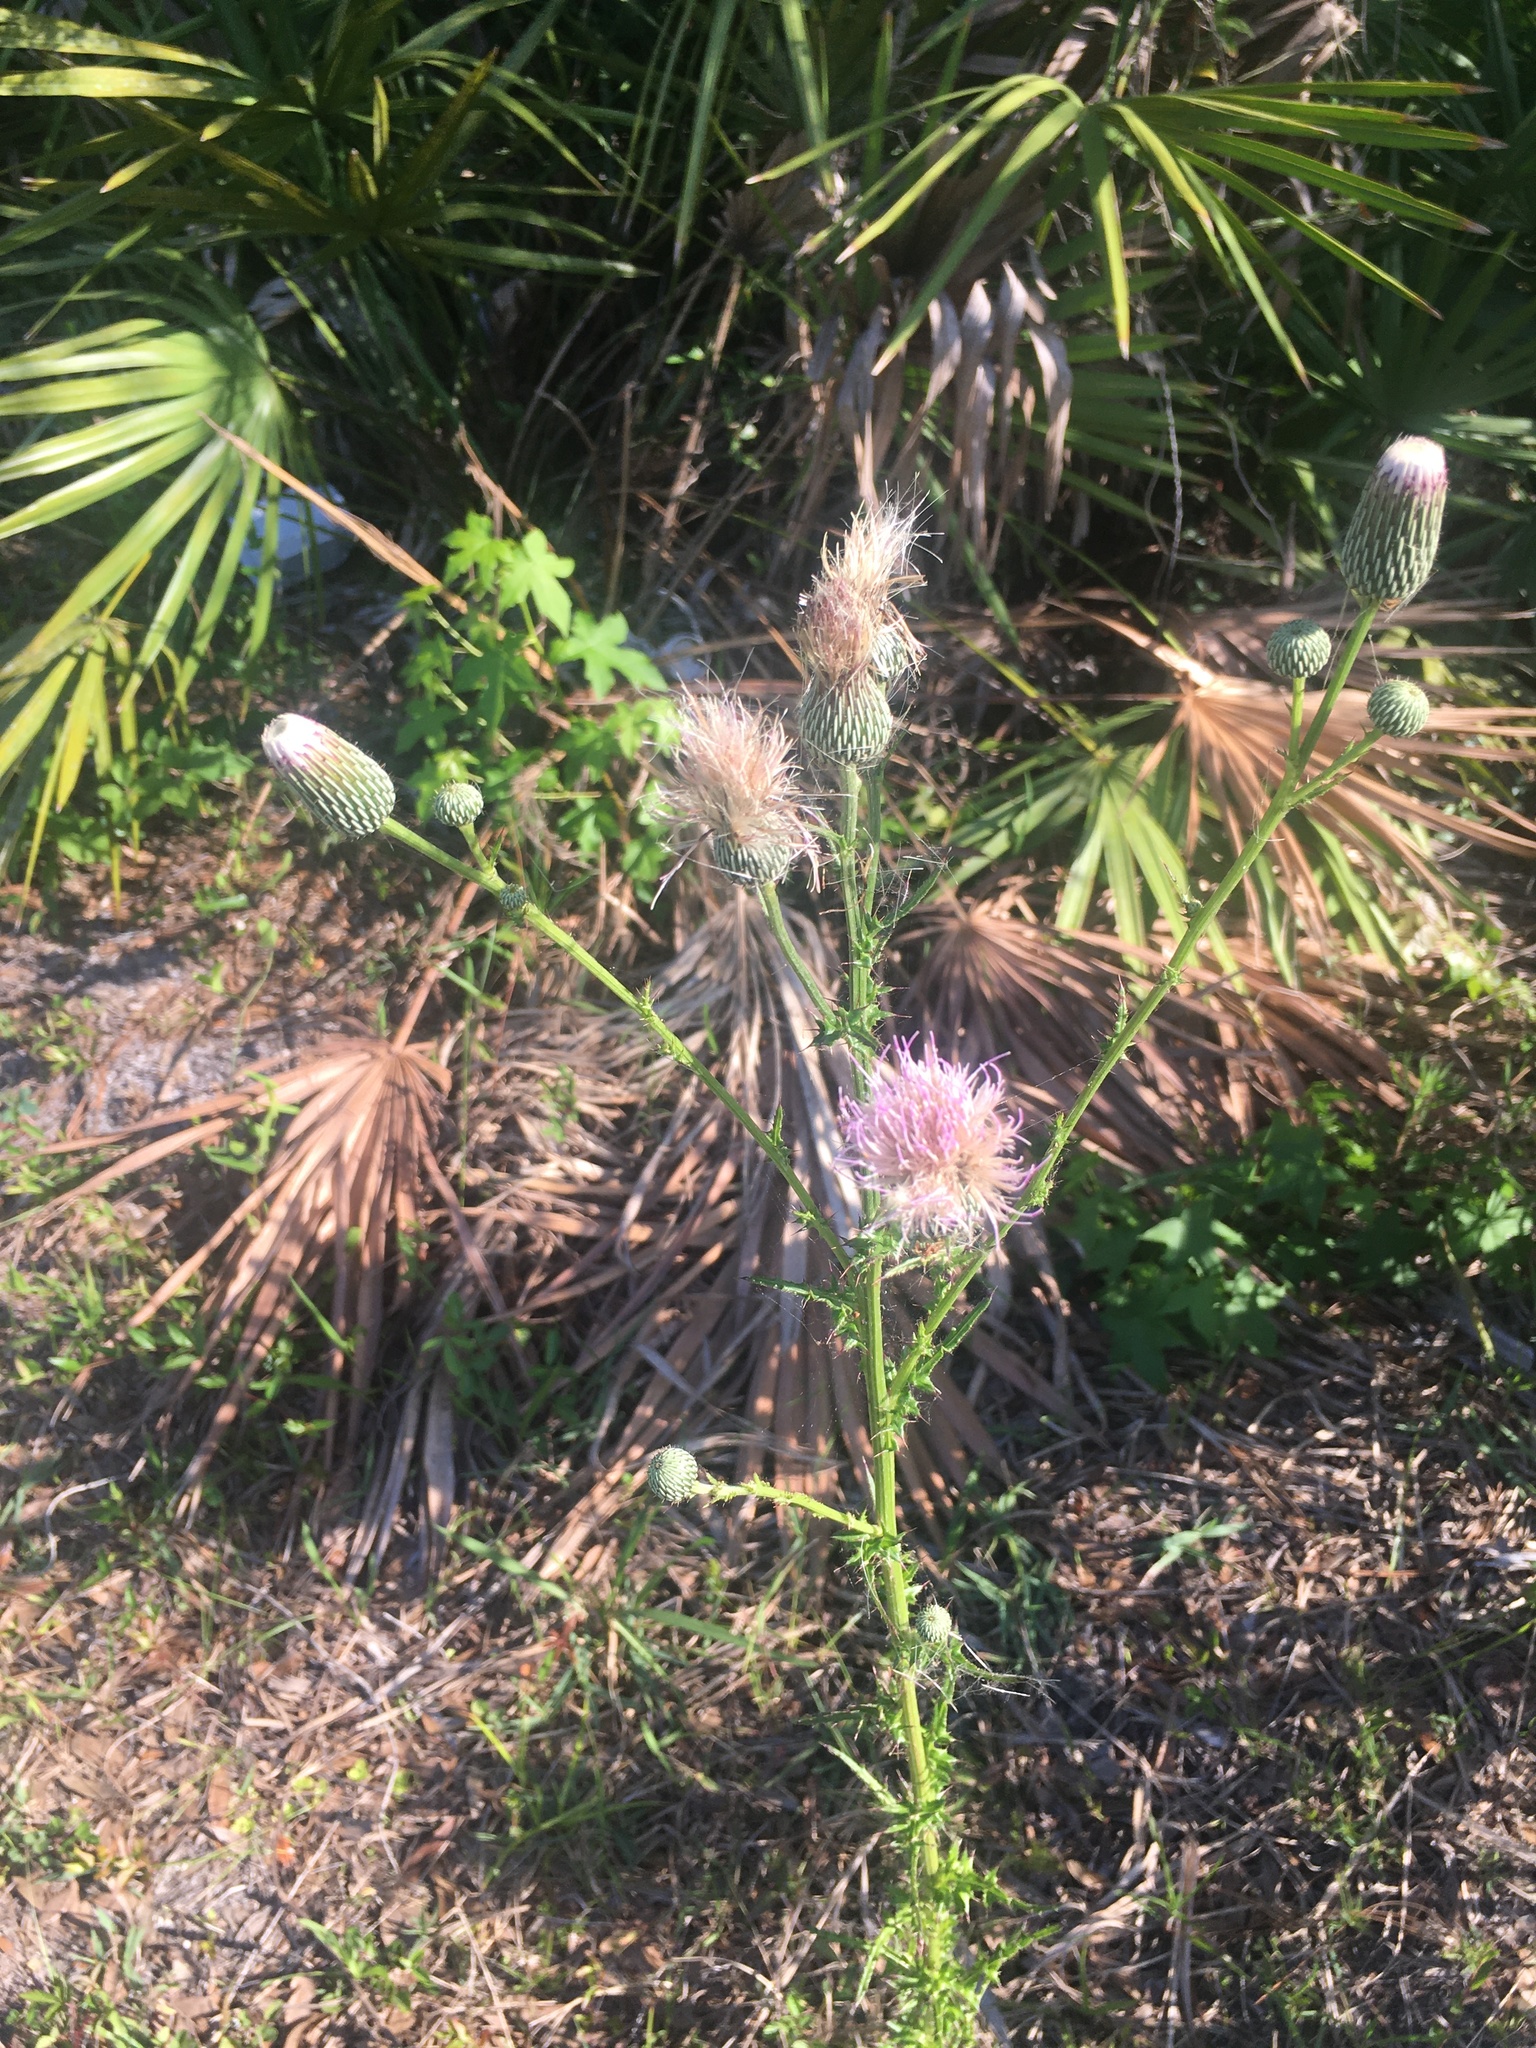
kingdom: Plantae
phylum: Tracheophyta
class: Magnoliopsida
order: Asterales
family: Asteraceae
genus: Cirsium
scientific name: Cirsium nuttalii
